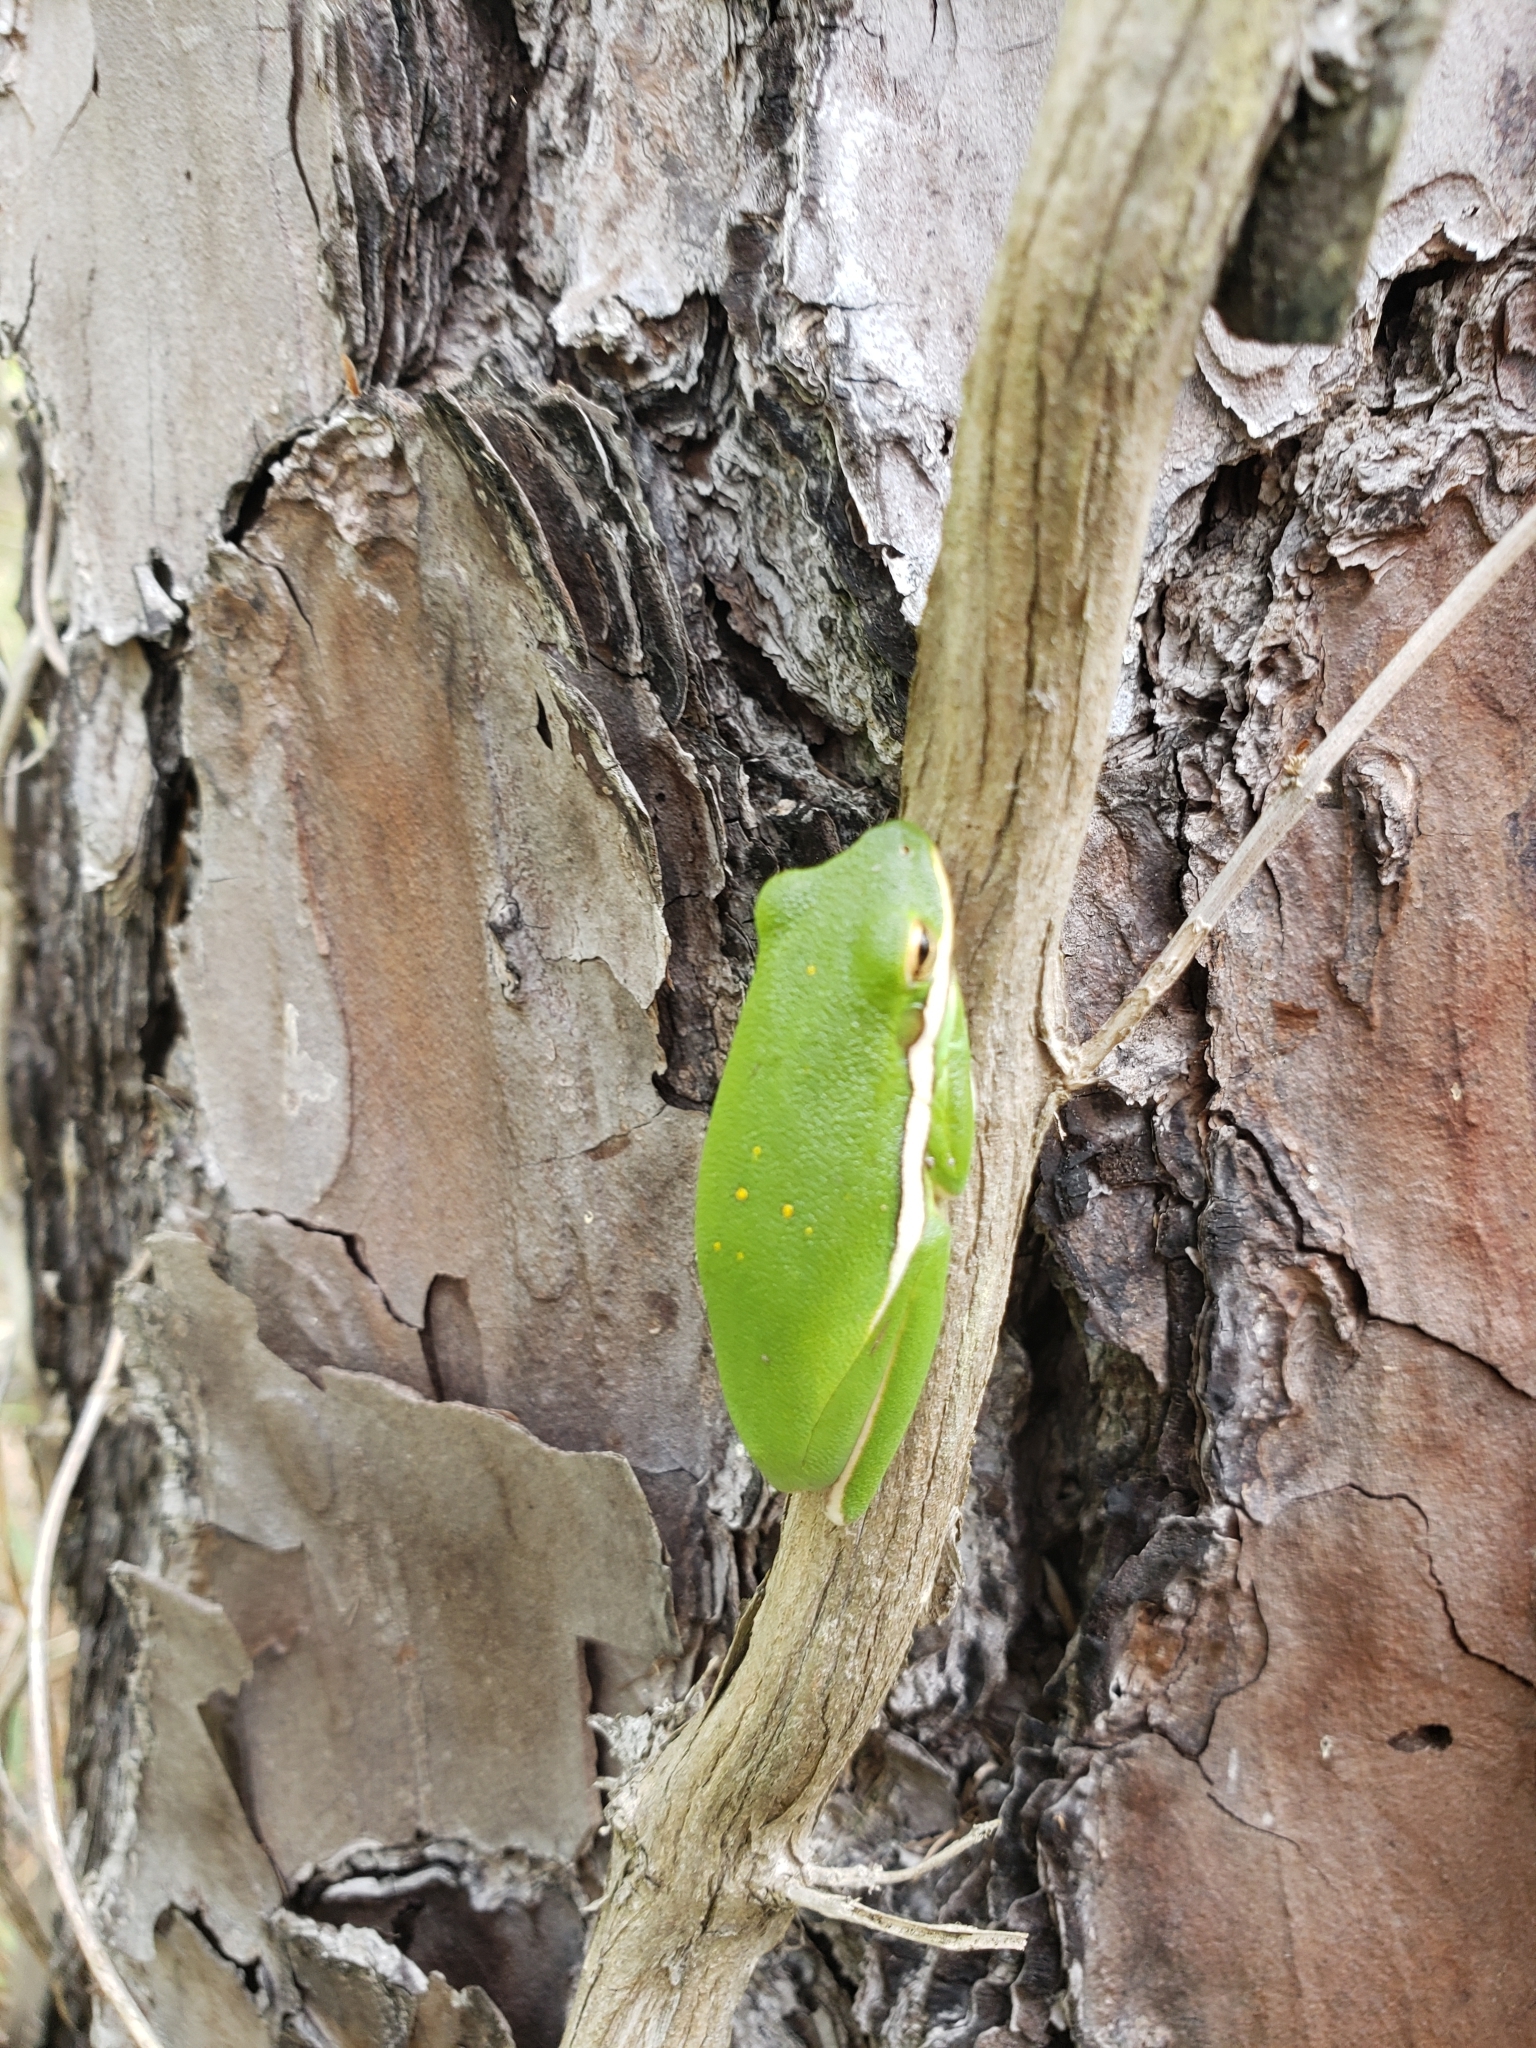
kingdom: Animalia
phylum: Chordata
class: Amphibia
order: Anura
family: Hylidae
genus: Dryophytes
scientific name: Dryophytes cinereus
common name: Green treefrog
